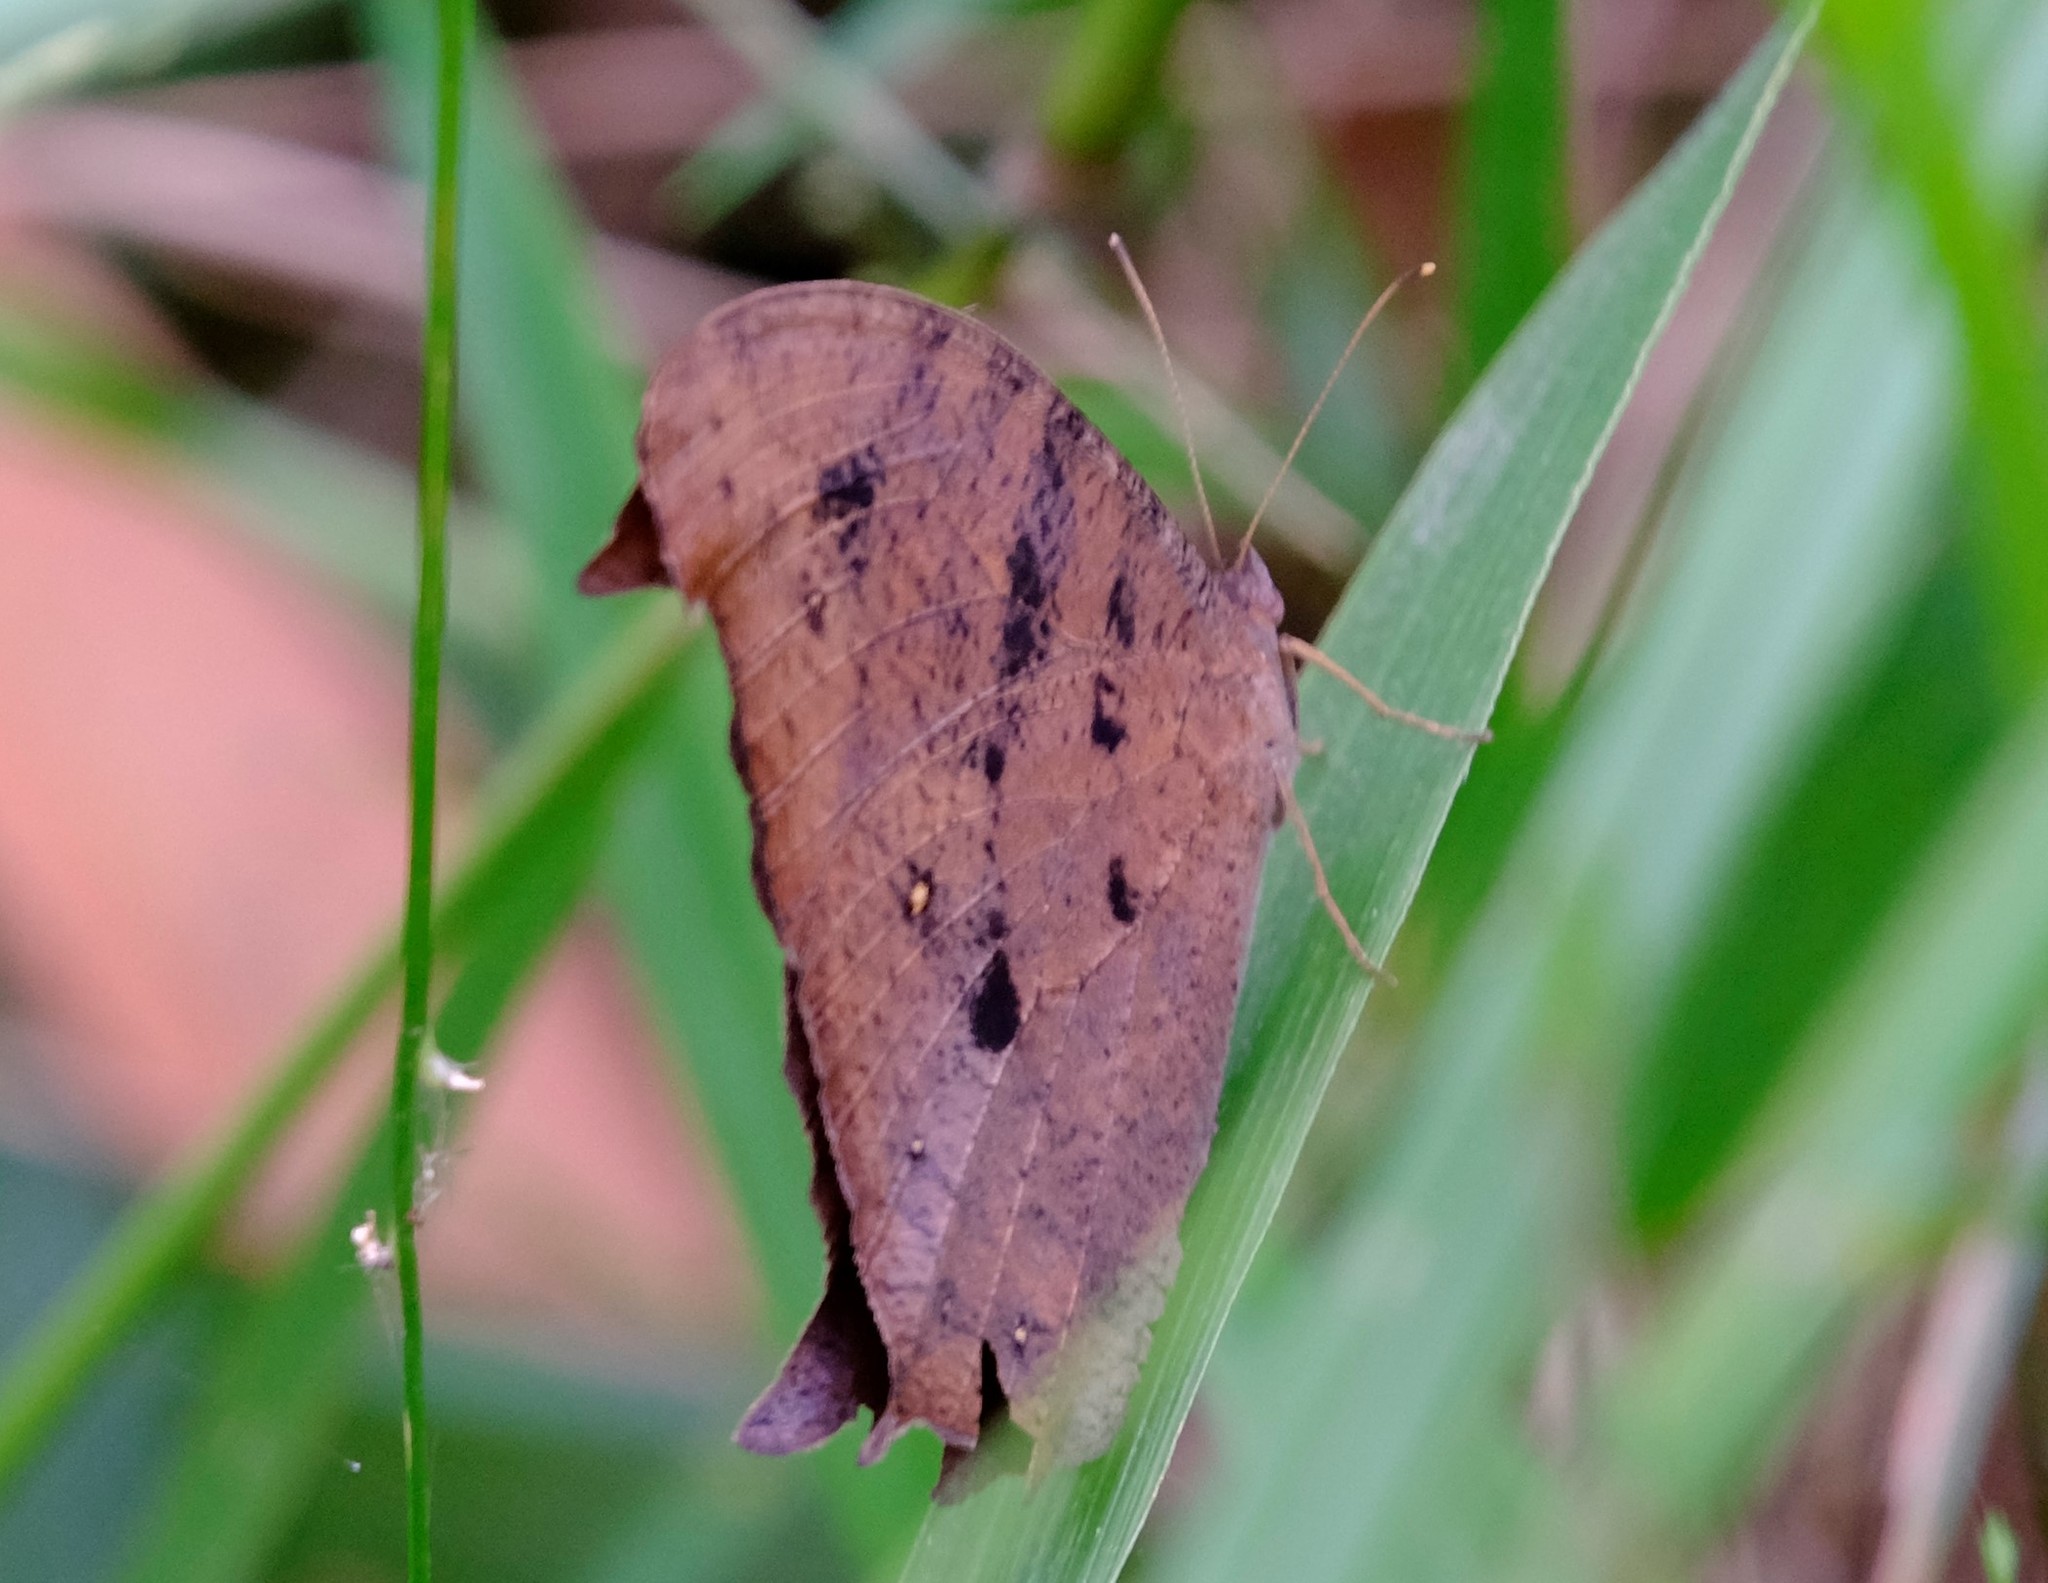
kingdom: Animalia
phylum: Arthropoda
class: Insecta
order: Lepidoptera
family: Nymphalidae
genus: Melanitis
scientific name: Melanitis leda
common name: Twilight brown
